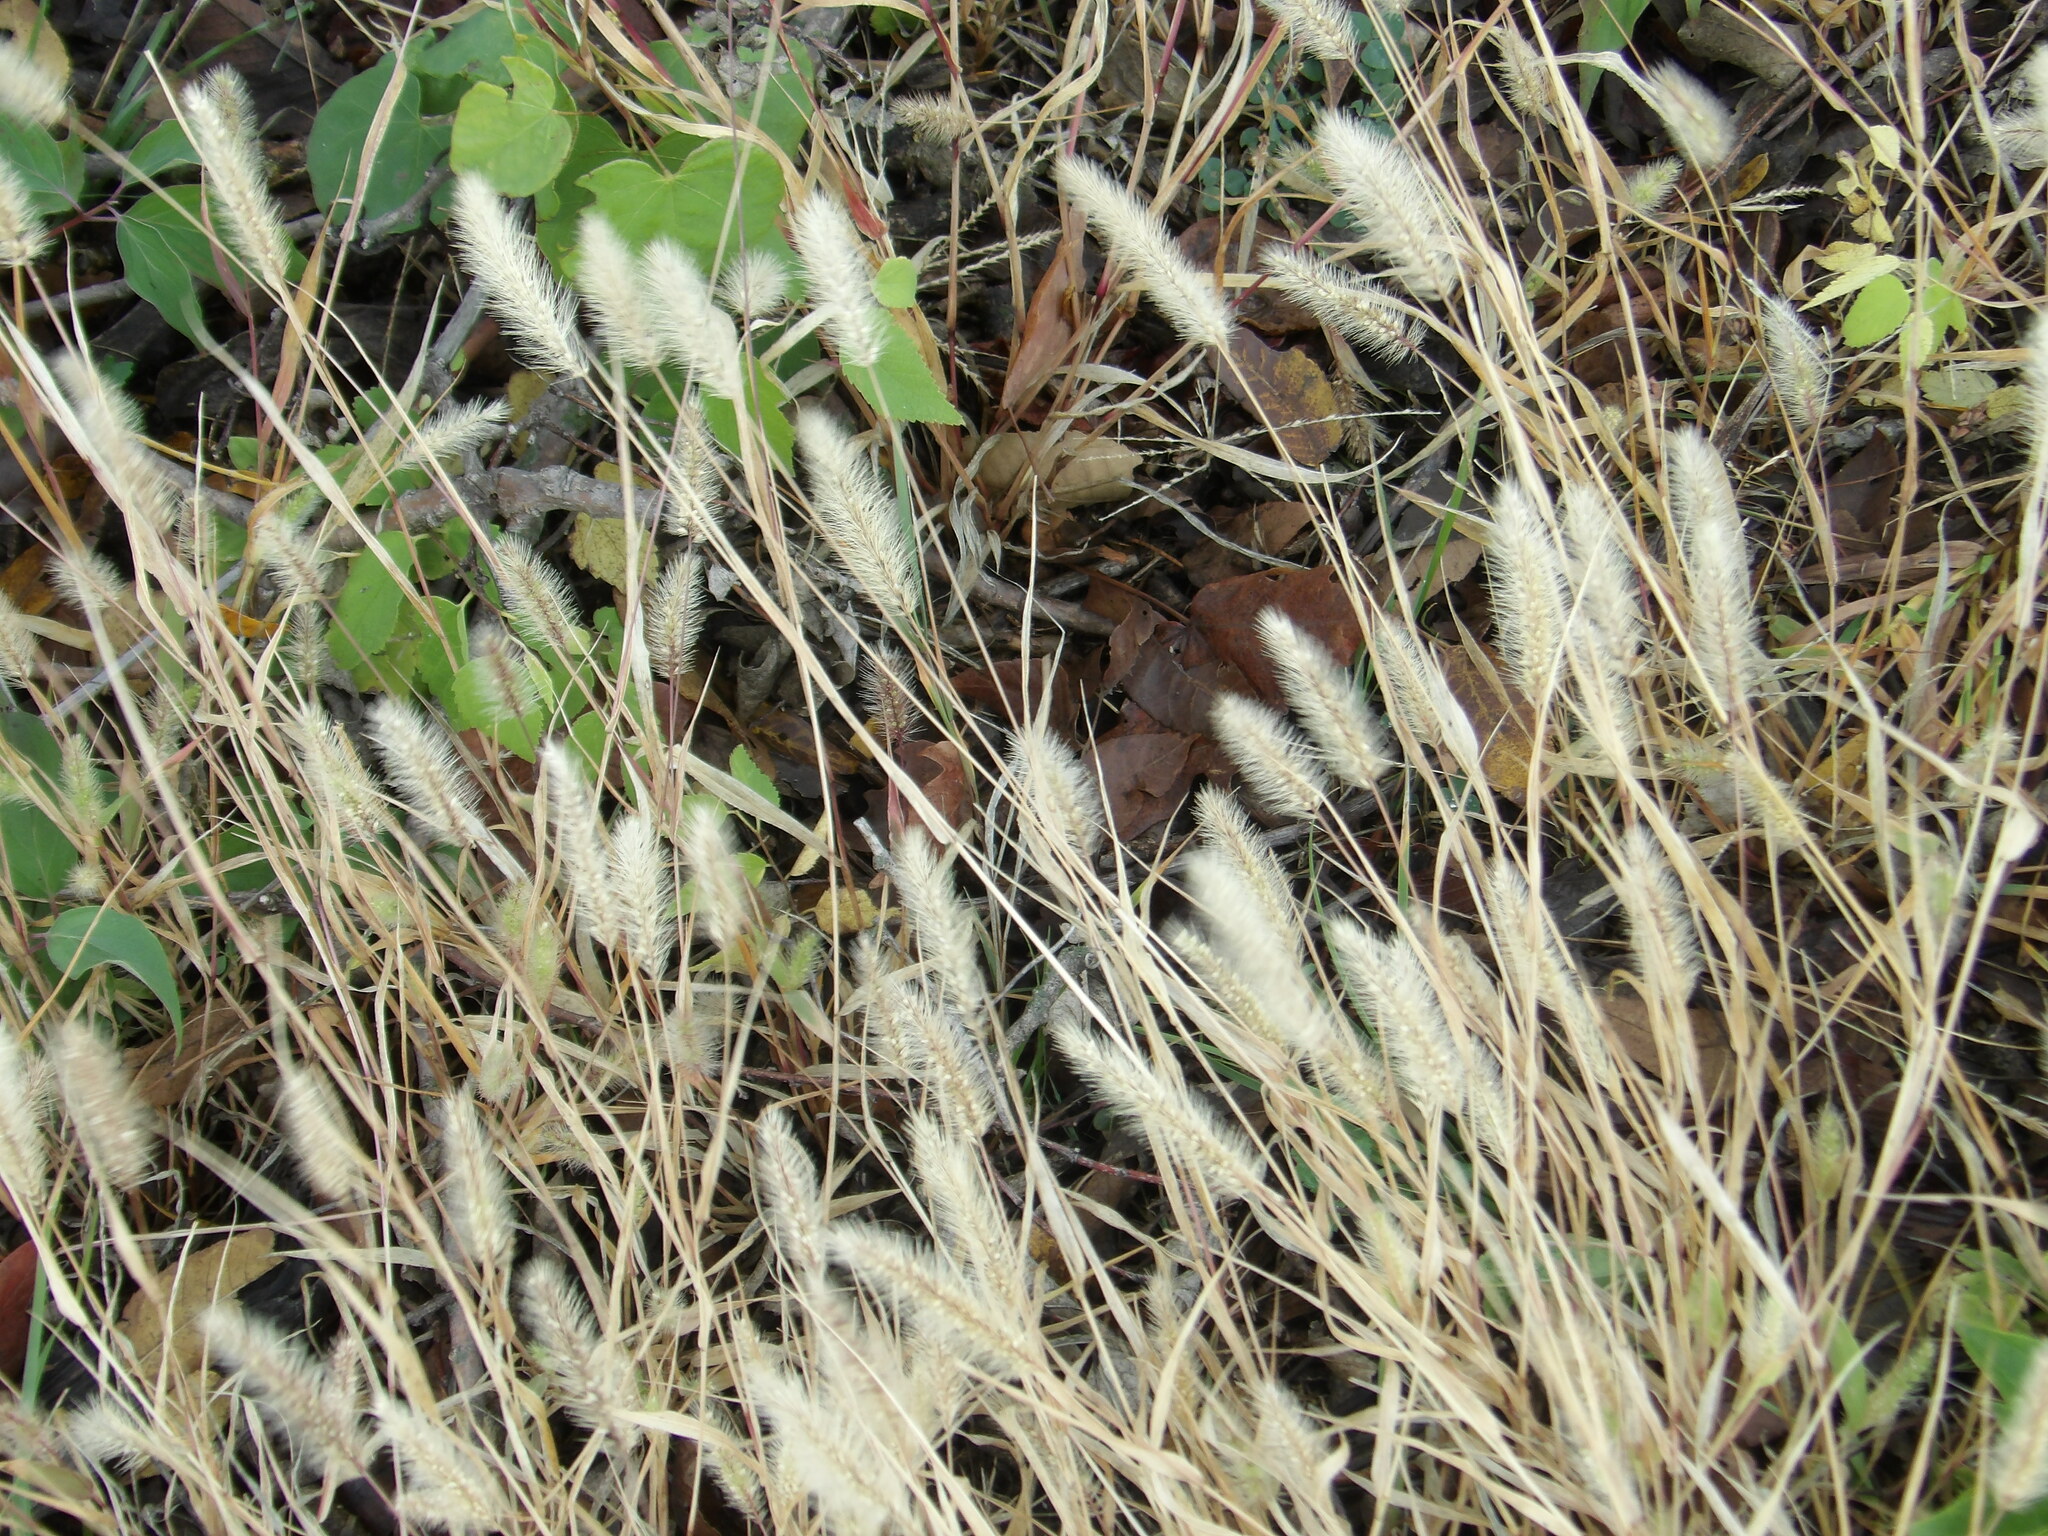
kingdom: Plantae
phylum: Tracheophyta
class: Liliopsida
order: Poales
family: Poaceae
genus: Setaria
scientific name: Setaria viridis
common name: Green bristlegrass
